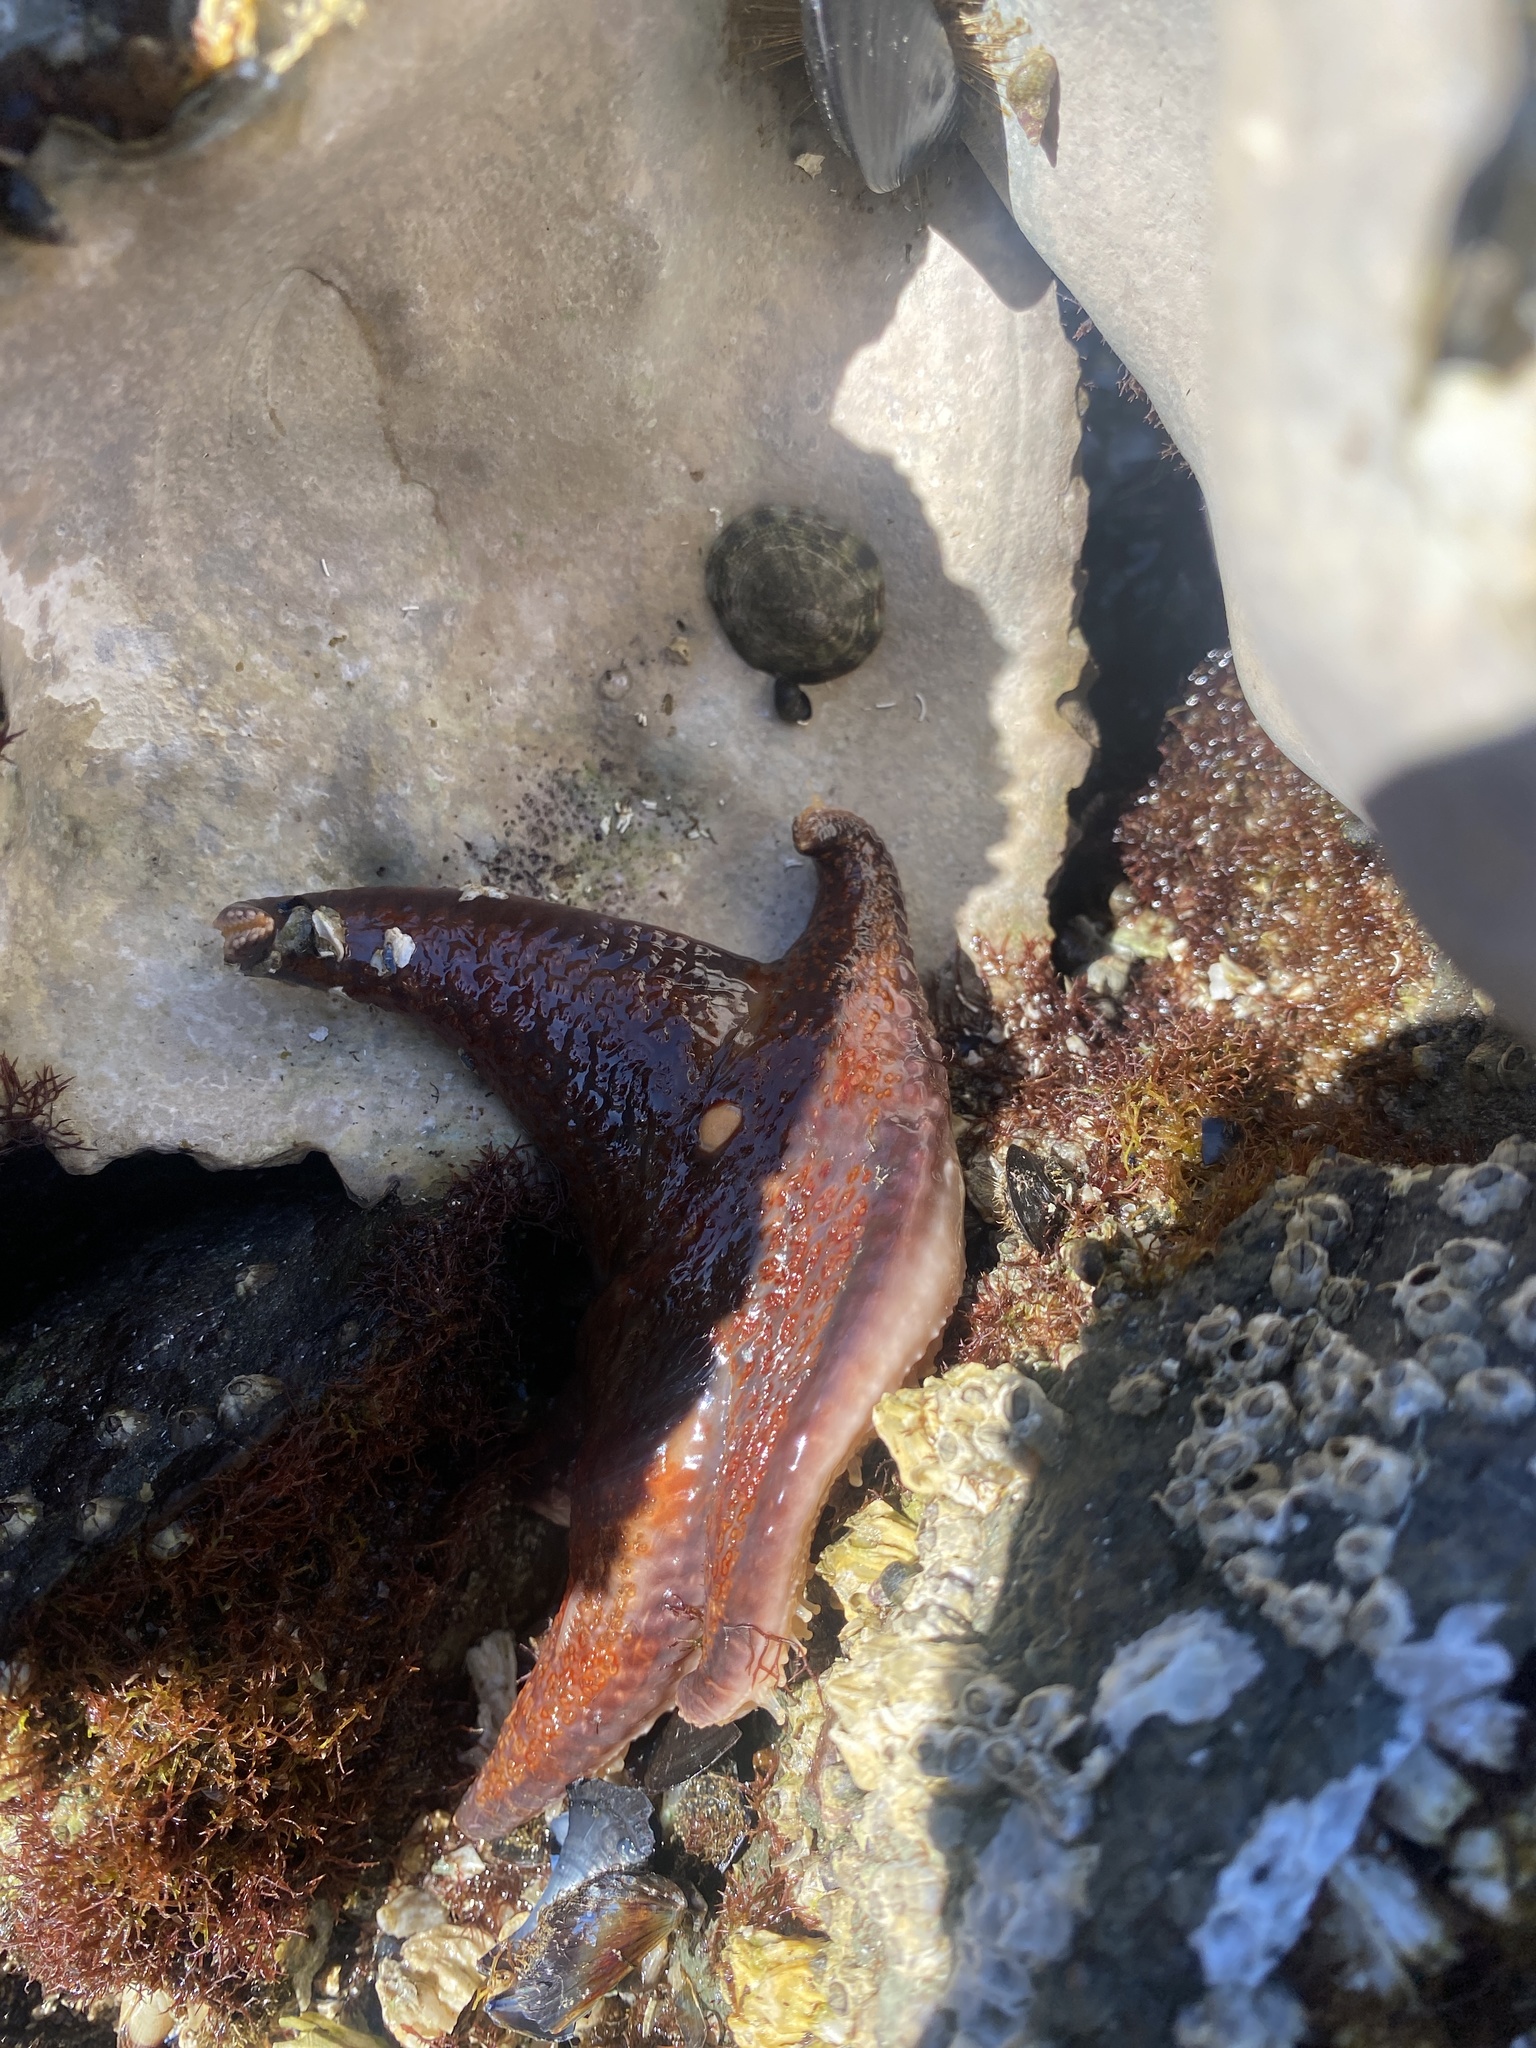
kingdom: Animalia
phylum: Echinodermata
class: Asteroidea
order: Valvatida
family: Asteropseidae
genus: Dermasterias
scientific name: Dermasterias imbricata
